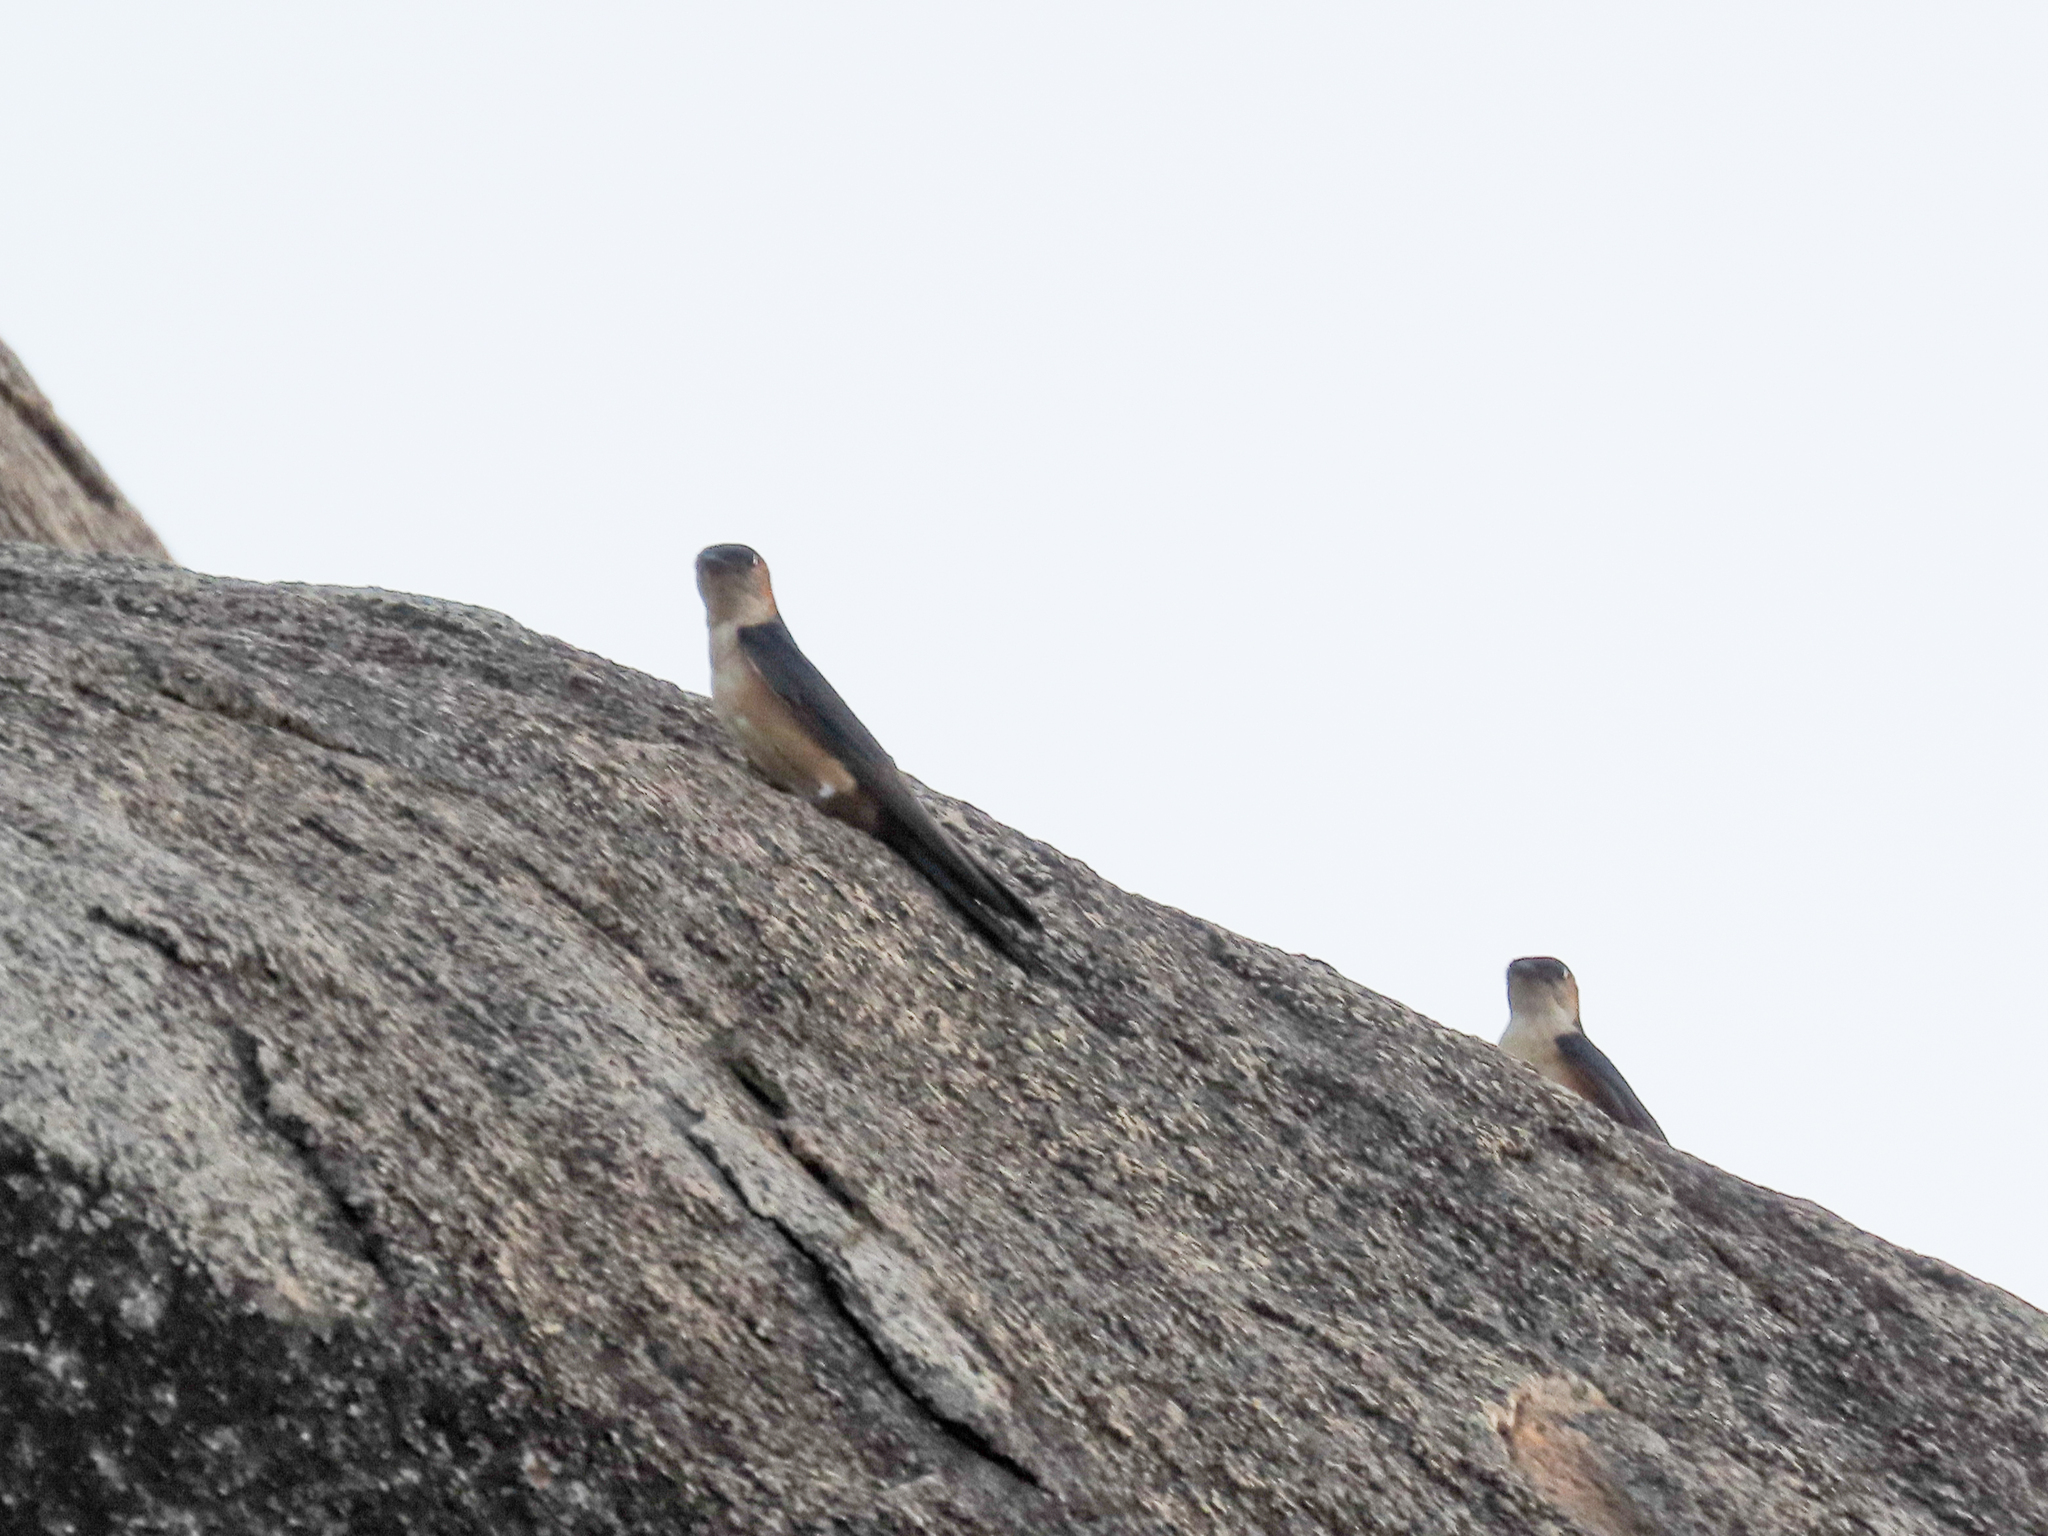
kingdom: Animalia
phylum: Chordata
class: Aves
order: Passeriformes
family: Hirundinidae
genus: Cecropis
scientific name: Cecropis daurica
